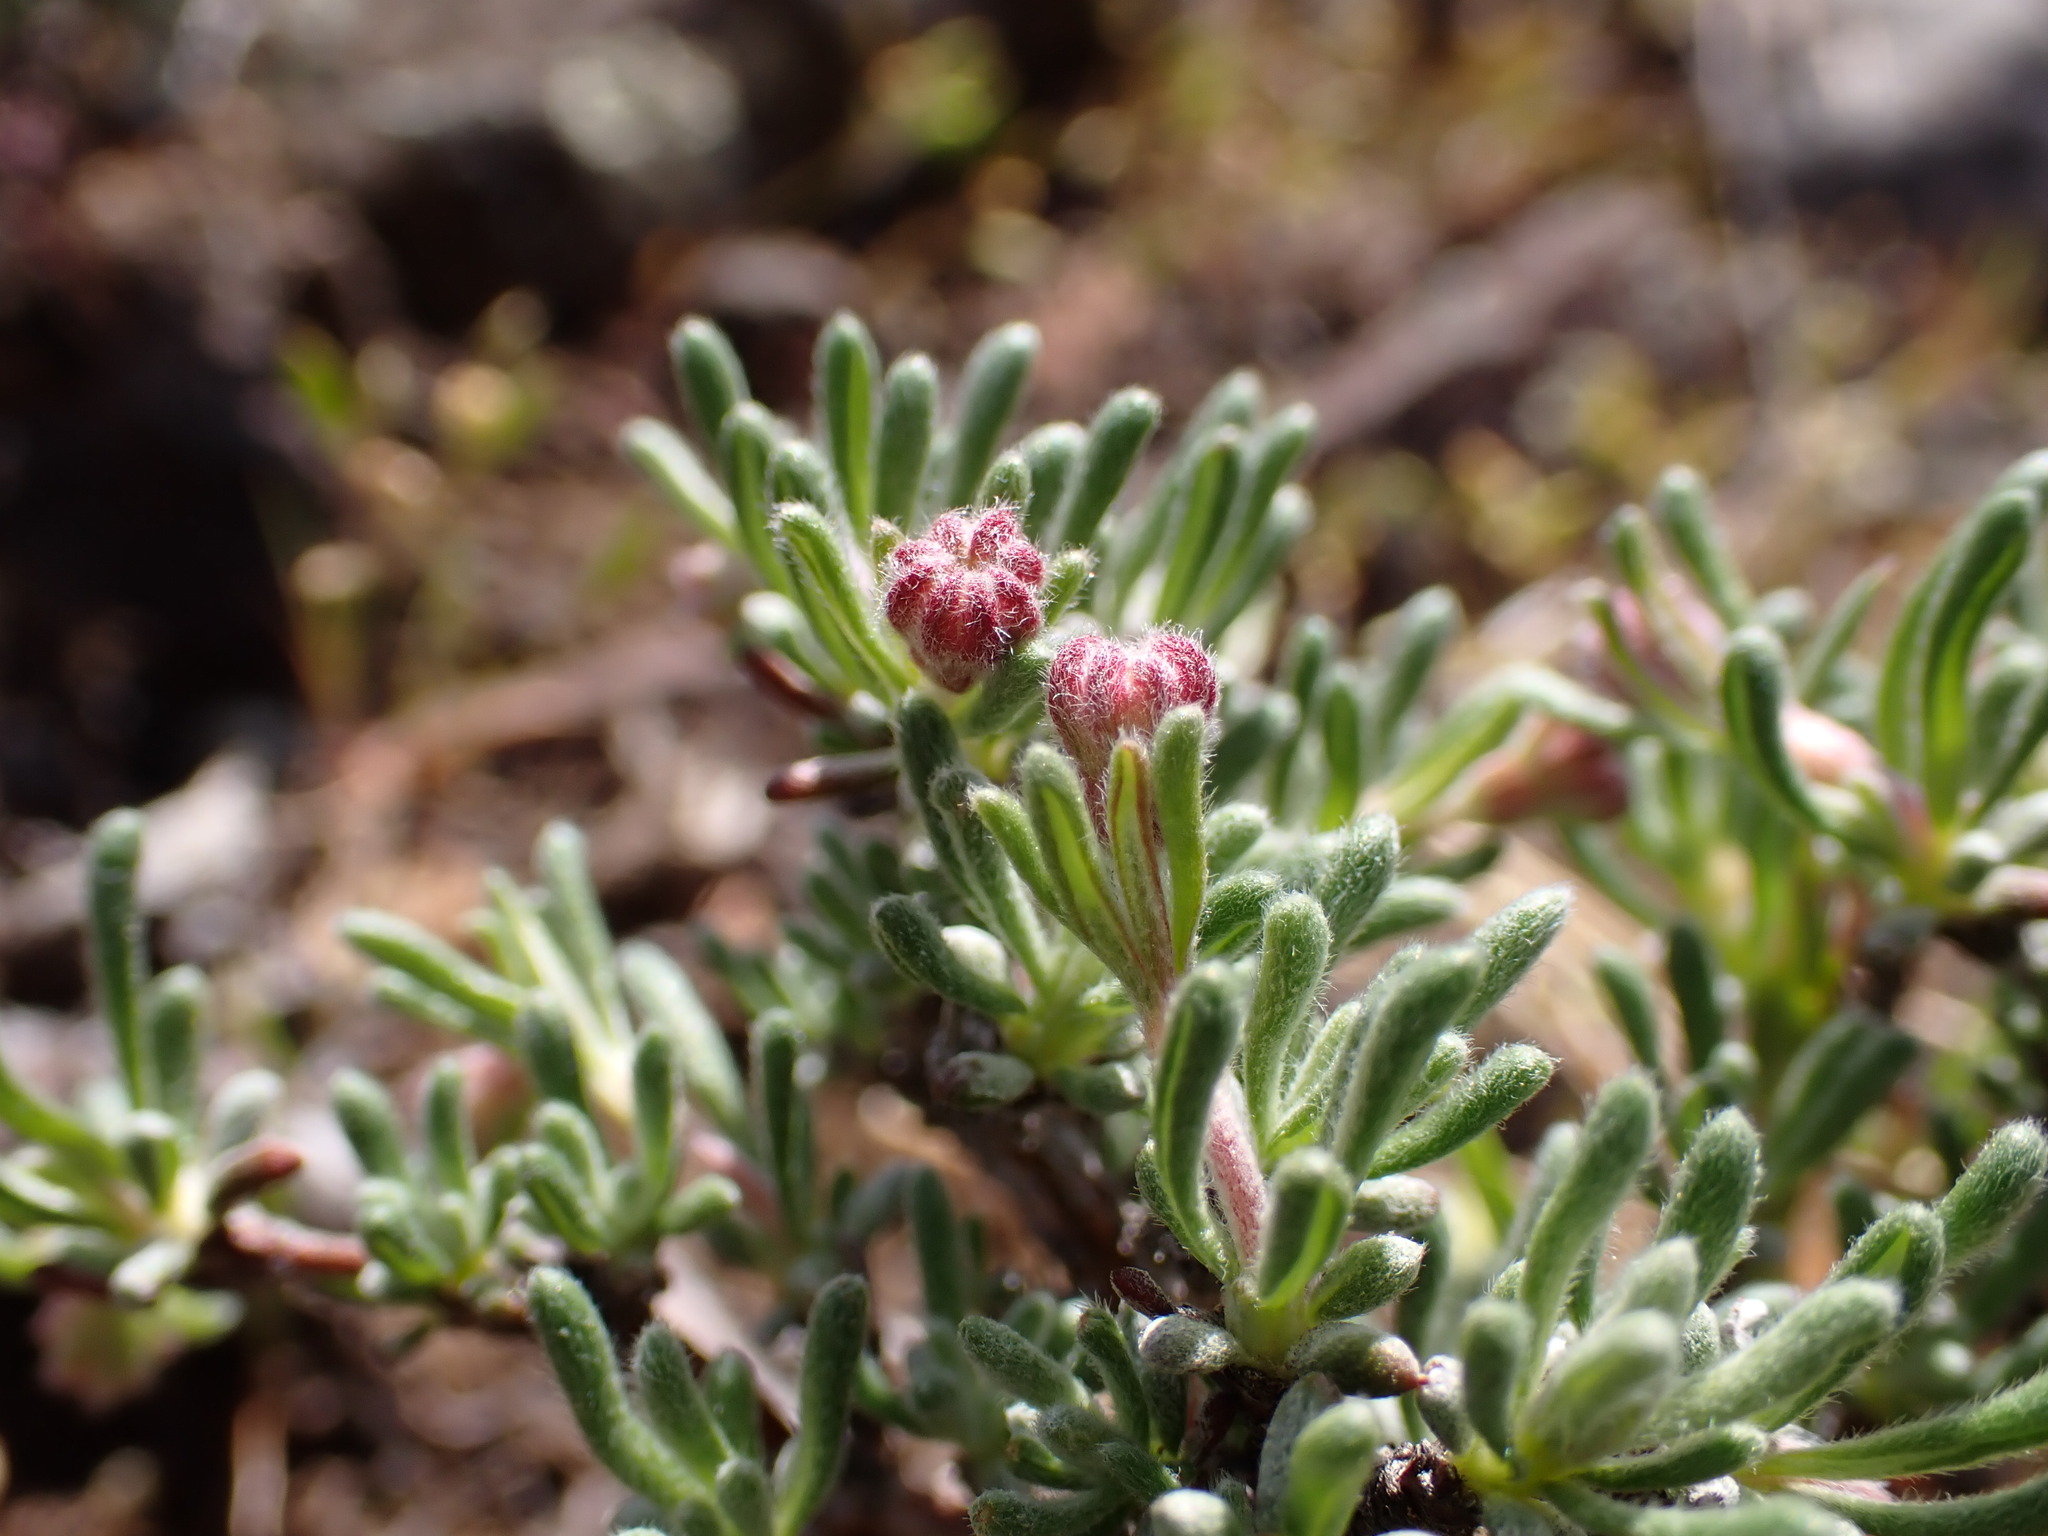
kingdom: Plantae
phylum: Tracheophyta
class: Magnoliopsida
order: Caryophyllales
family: Polygonaceae
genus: Eriogonum
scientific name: Eriogonum thymoides
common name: Thyme-leaf wild buckwheat
